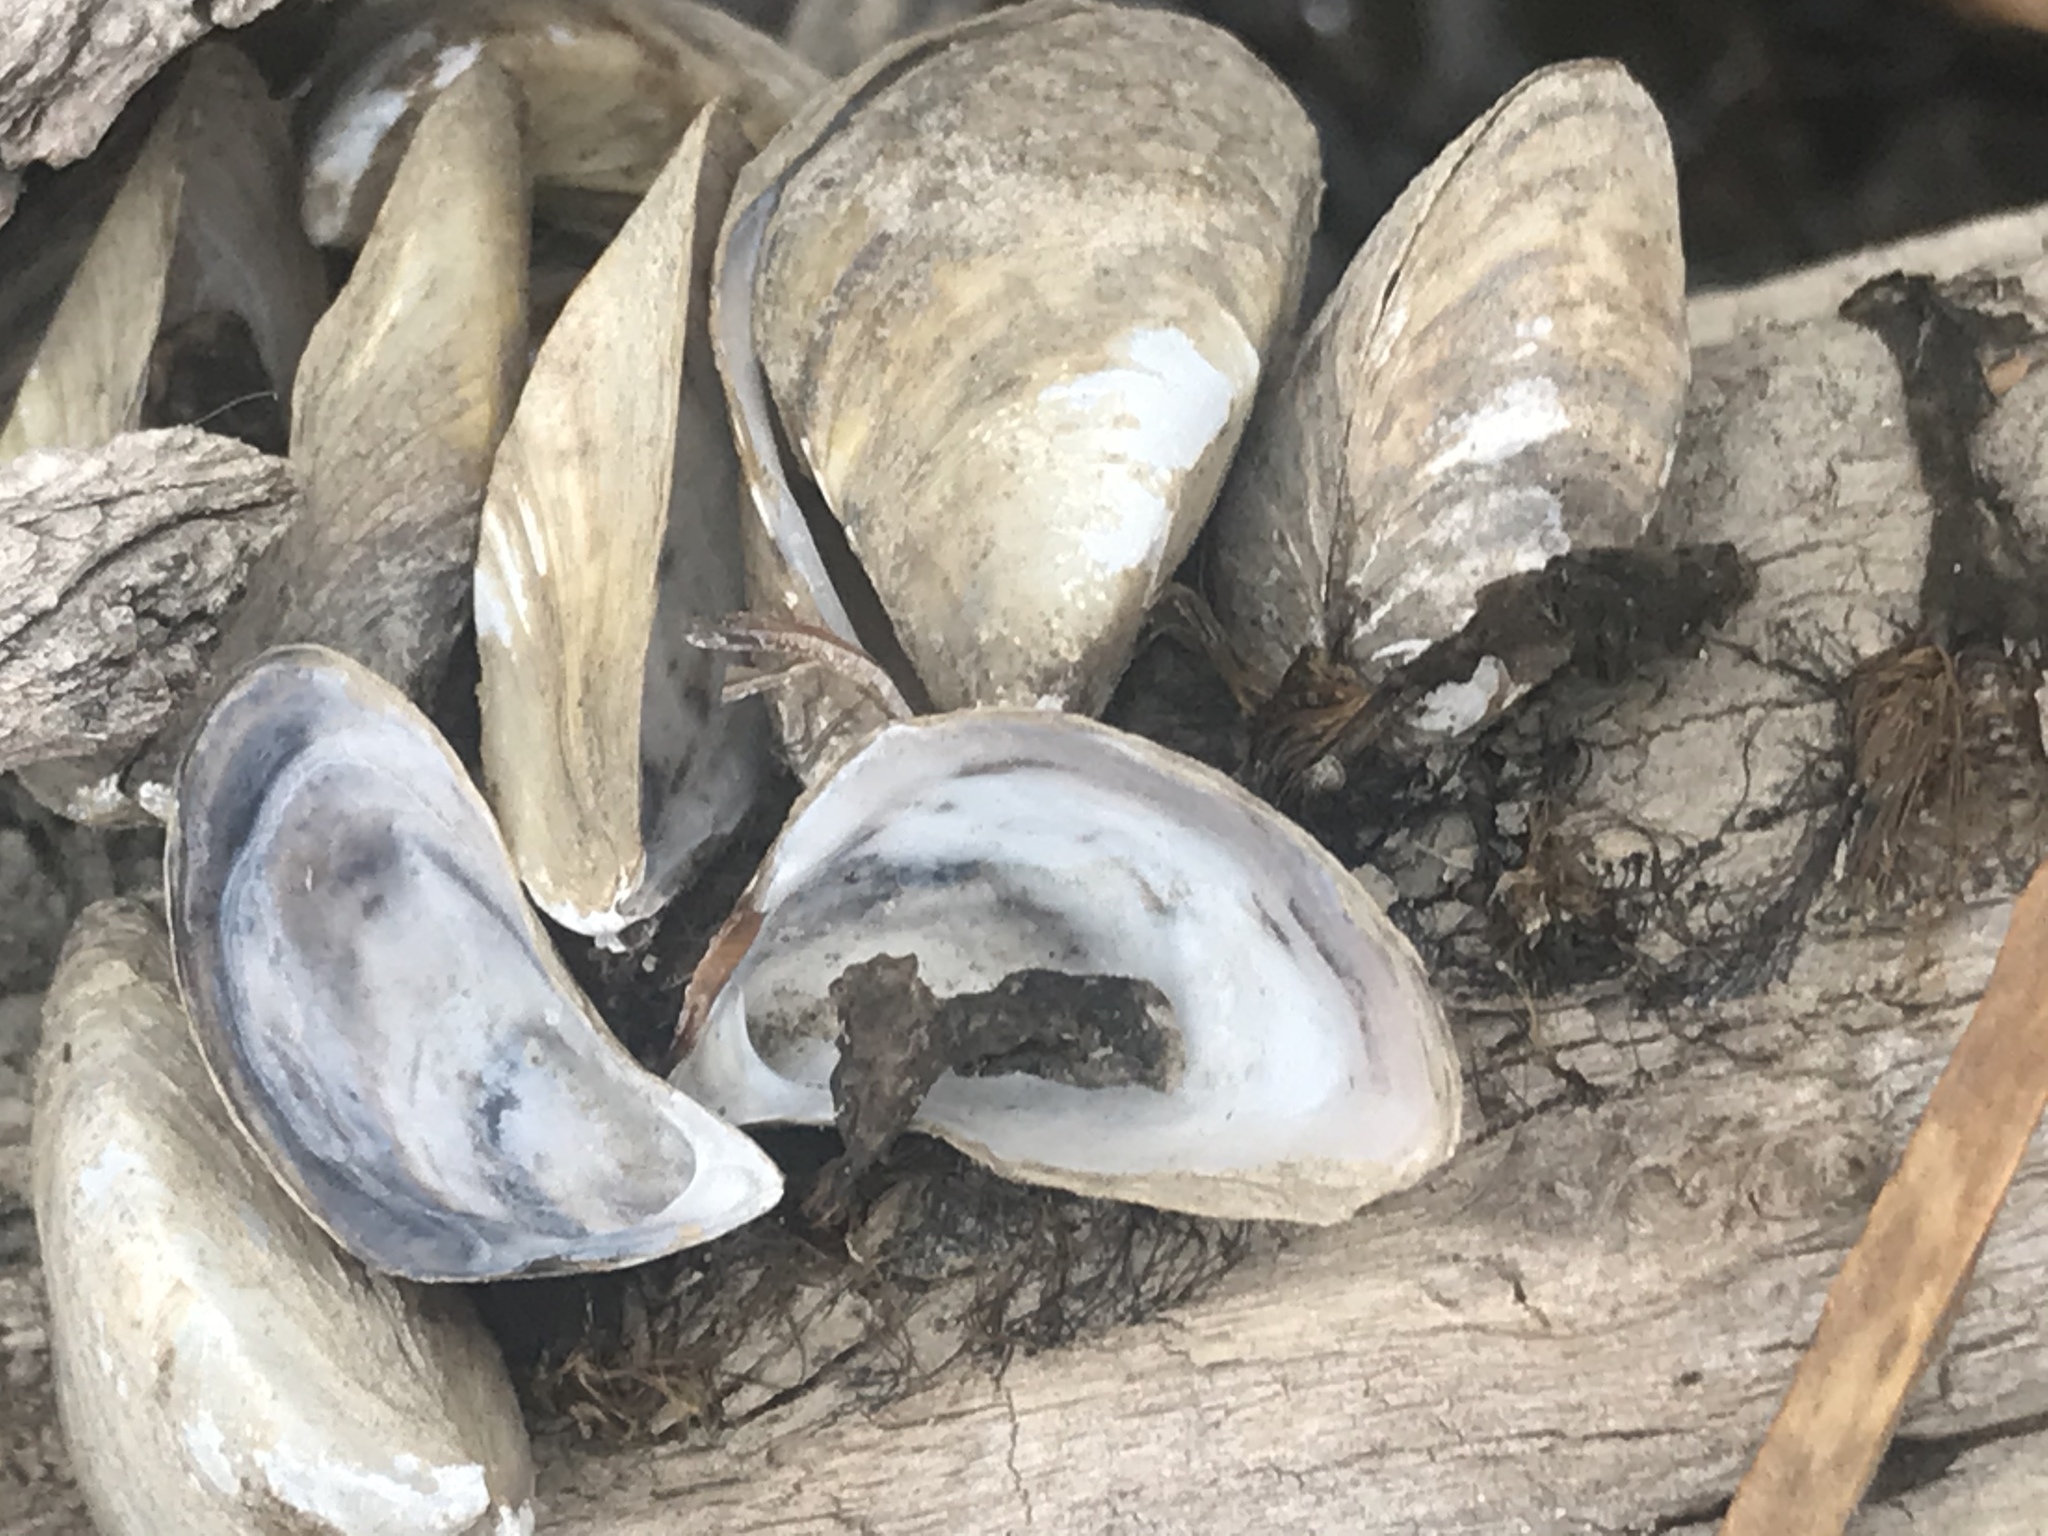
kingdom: Animalia
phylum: Mollusca
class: Bivalvia
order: Myida
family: Dreissenidae
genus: Dreissena
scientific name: Dreissena polymorpha
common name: Zebra mussel
